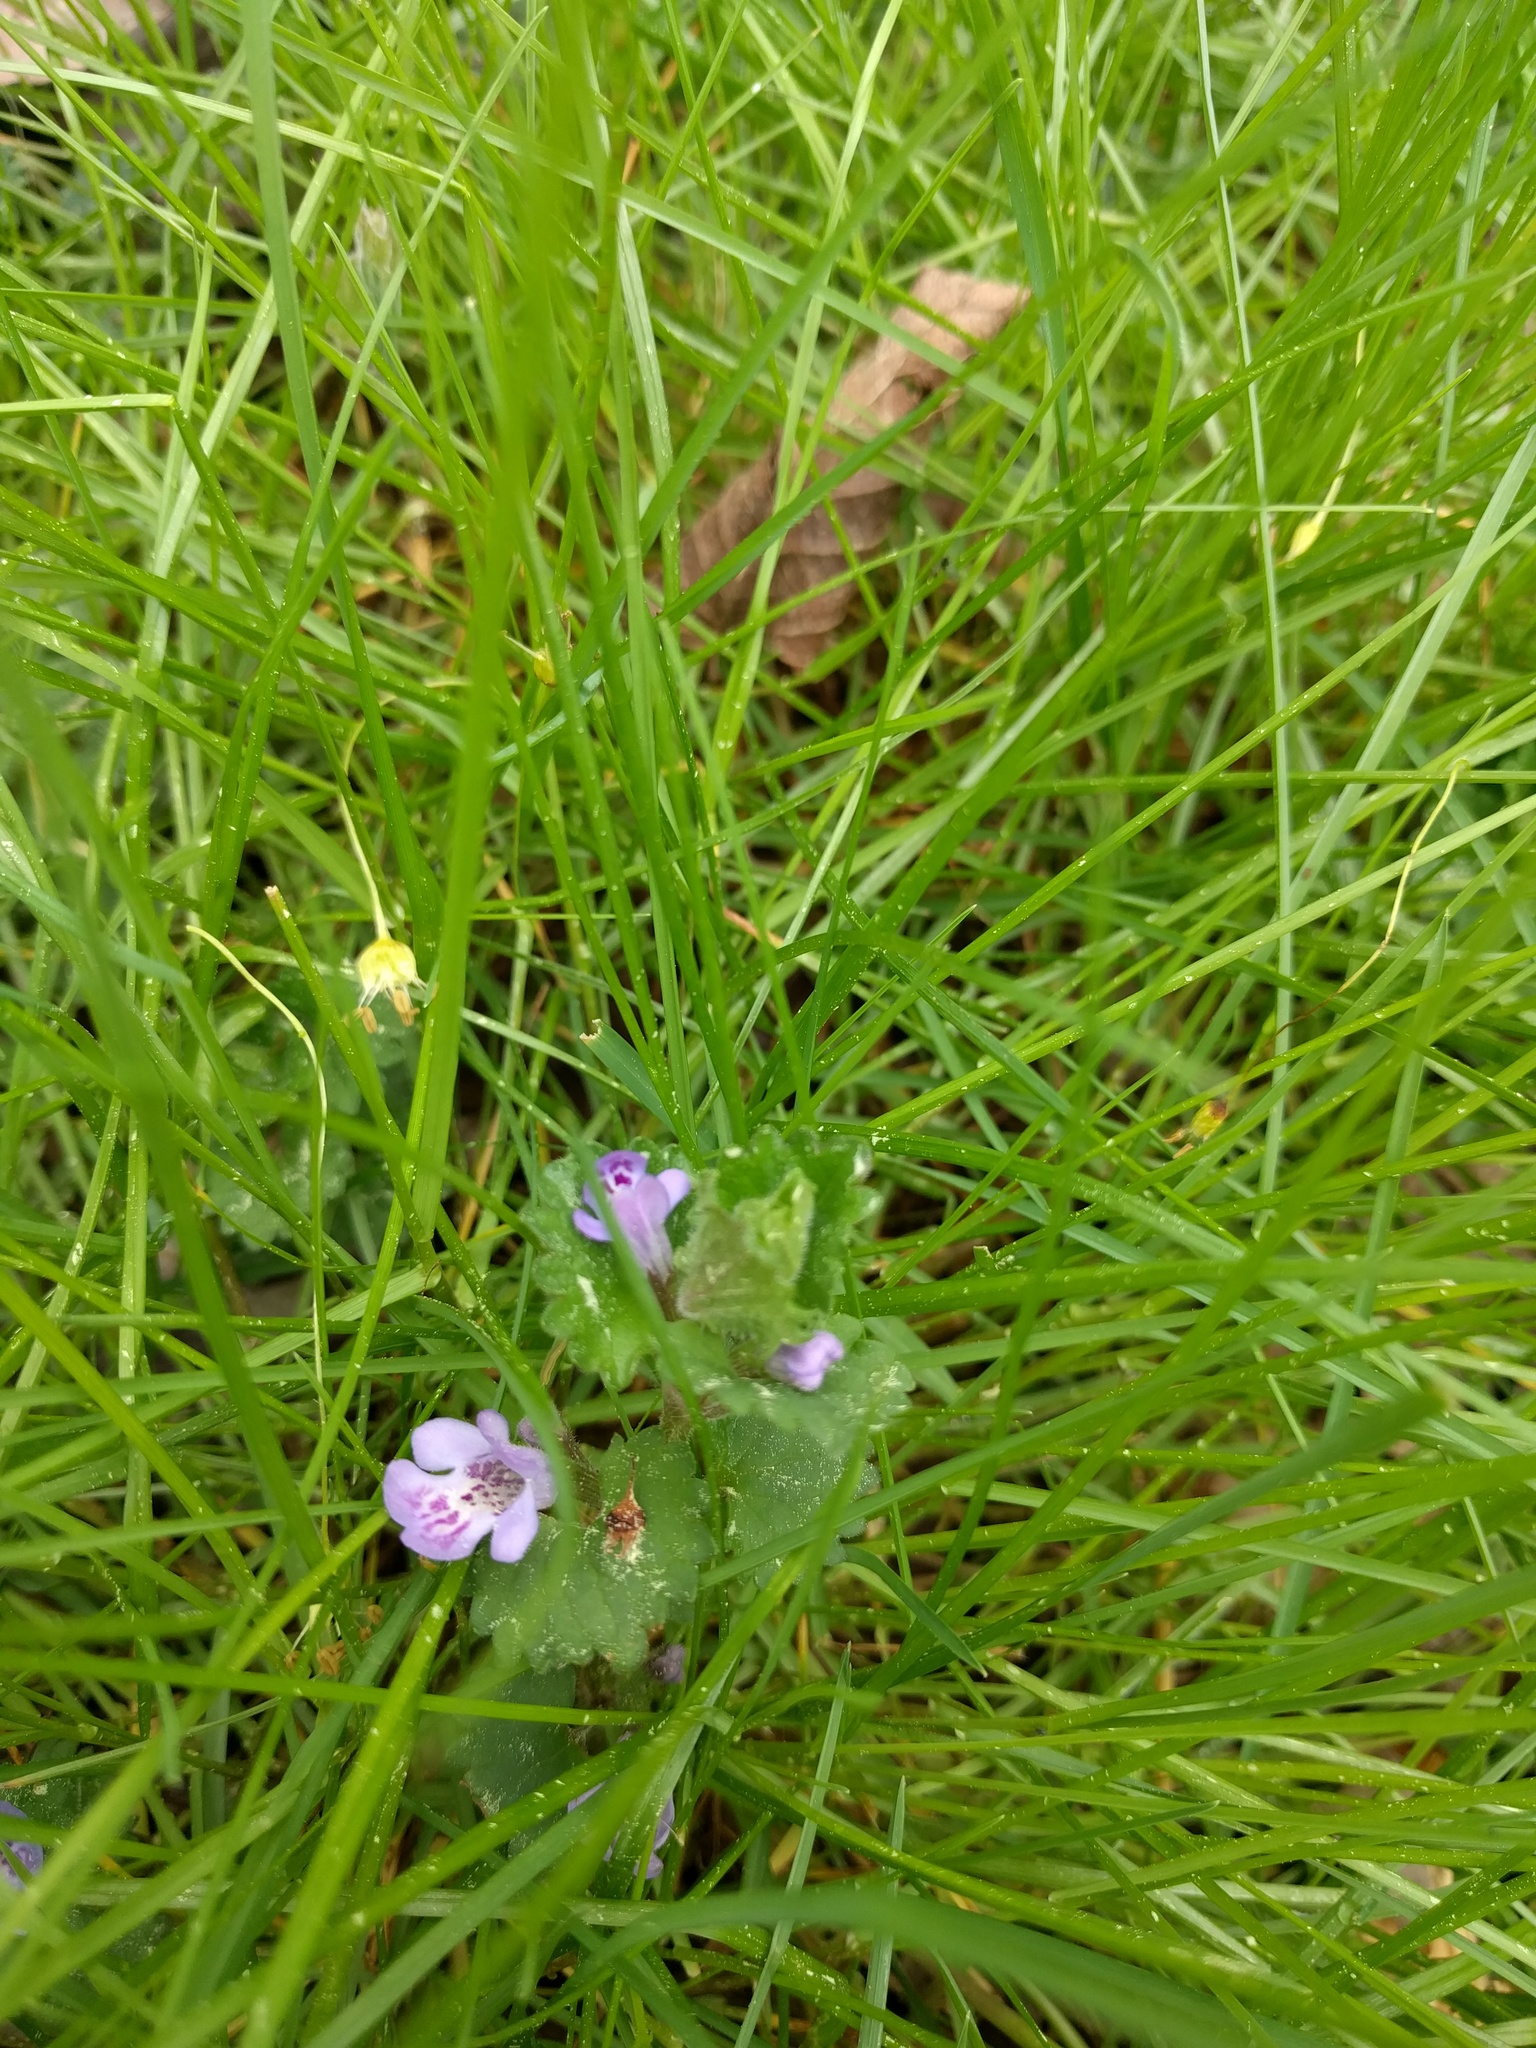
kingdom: Plantae
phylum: Tracheophyta
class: Magnoliopsida
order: Lamiales
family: Lamiaceae
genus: Glechoma
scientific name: Glechoma hederacea
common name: Ground ivy
